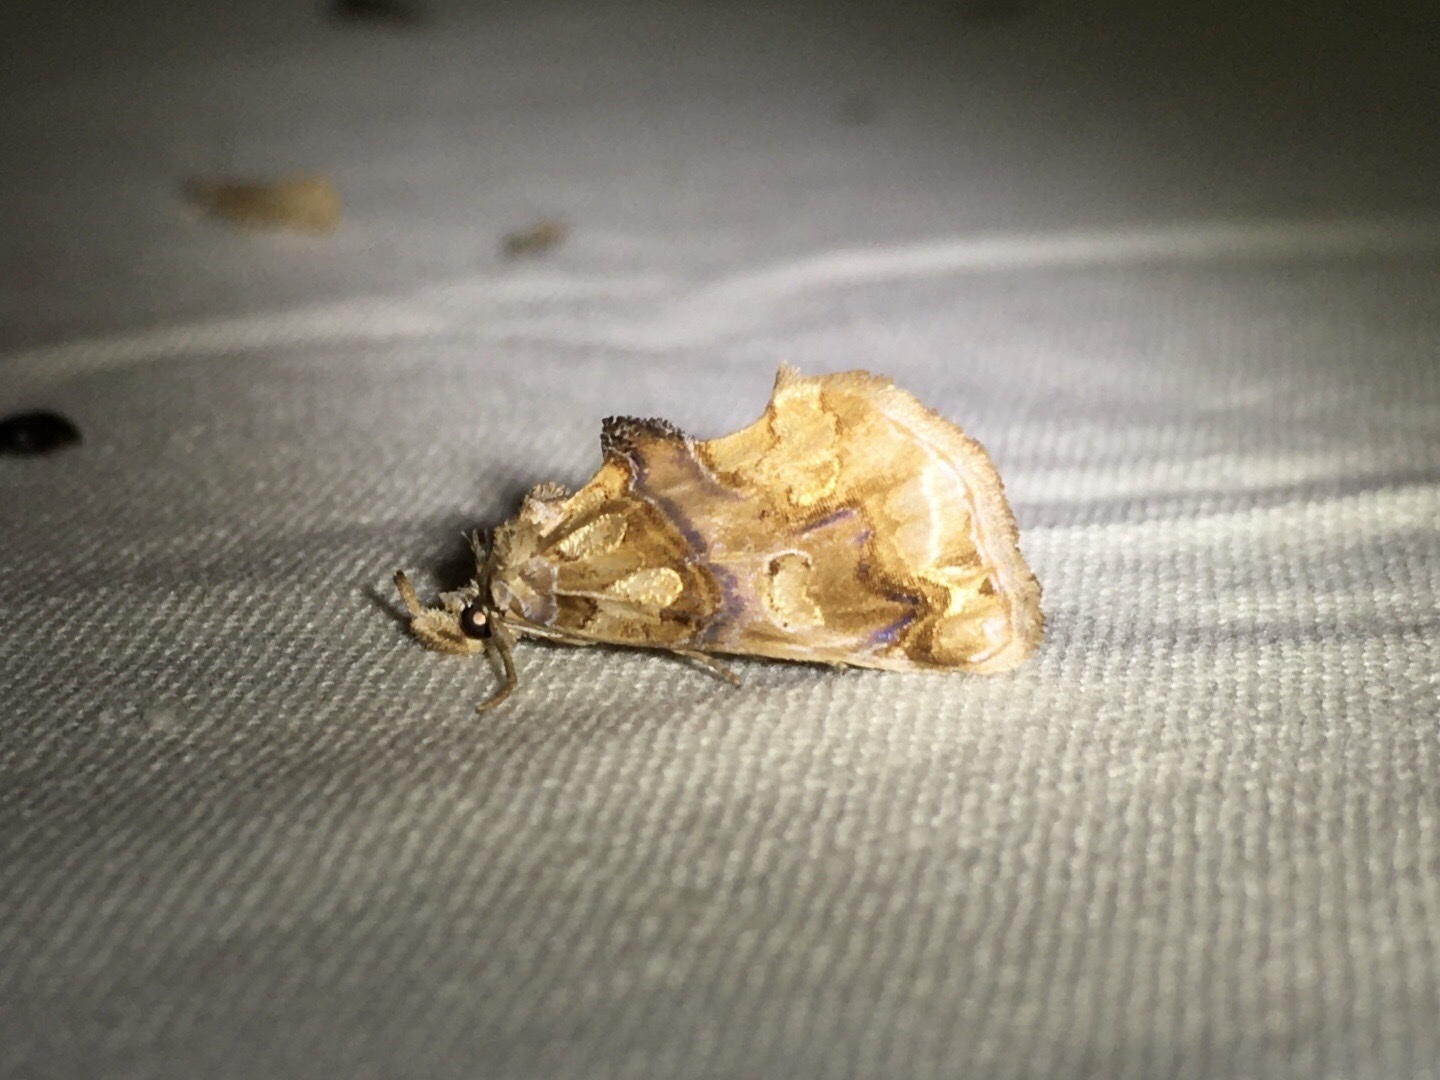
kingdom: Animalia
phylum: Arthropoda
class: Insecta
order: Lepidoptera
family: Erebidae
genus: Plusiodonta
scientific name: Plusiodonta compressipalpis
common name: Moonseed moth
